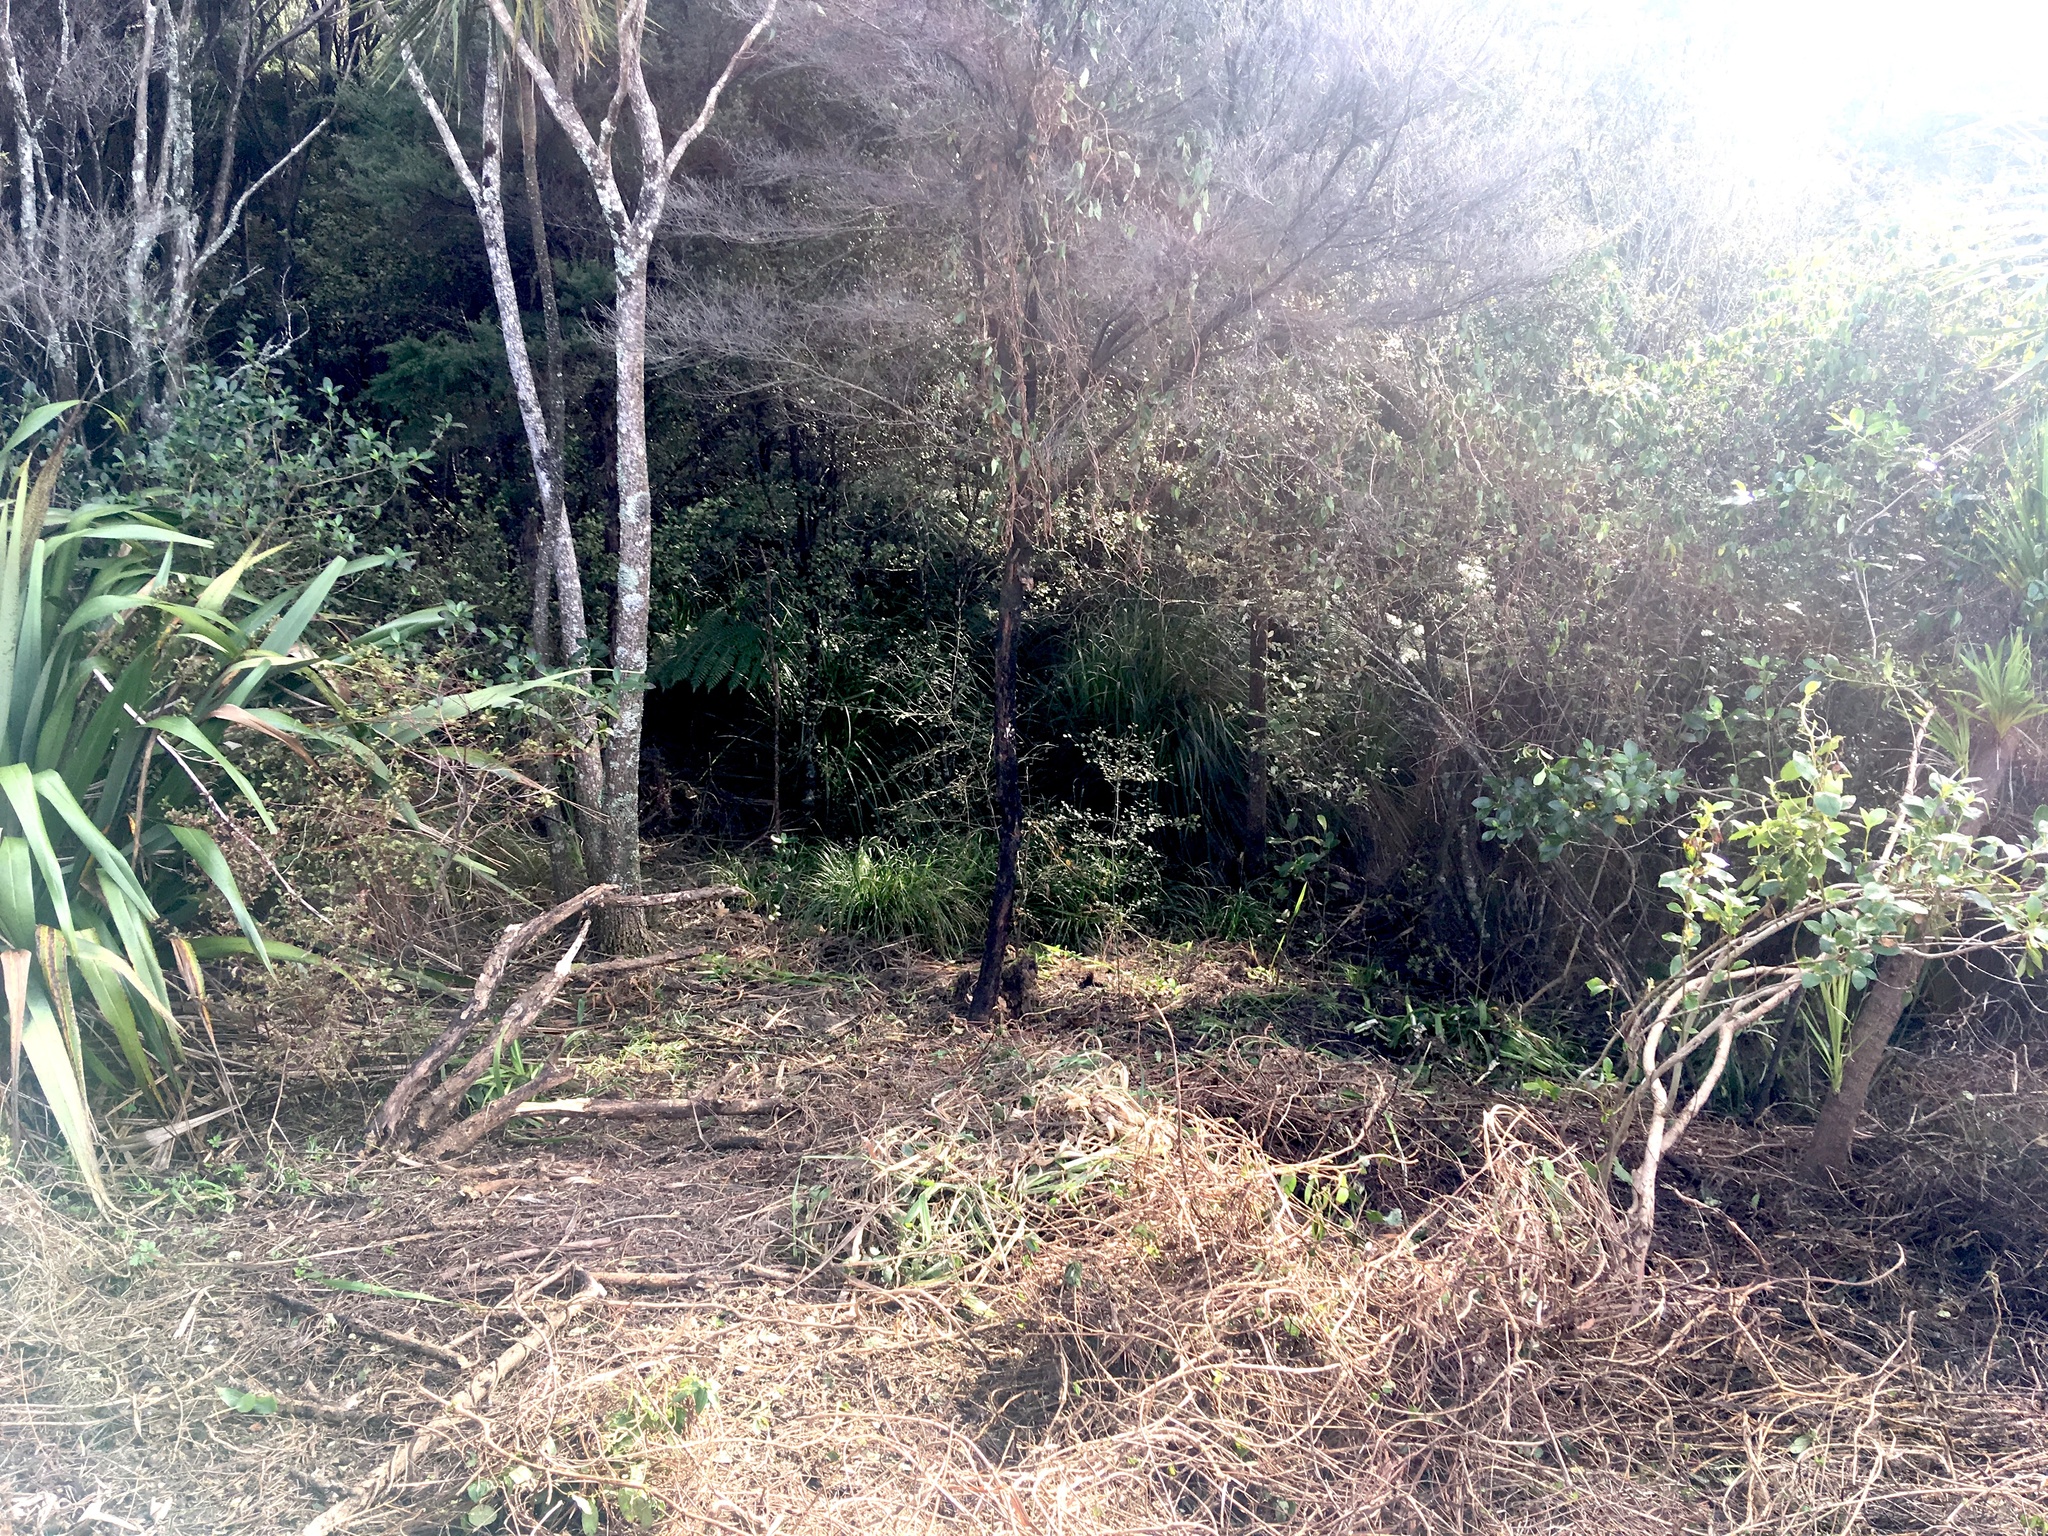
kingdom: Plantae
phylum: Tracheophyta
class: Liliopsida
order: Asparagales
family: Asphodelaceae
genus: Phormium
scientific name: Phormium tenax
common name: New zealand flax
